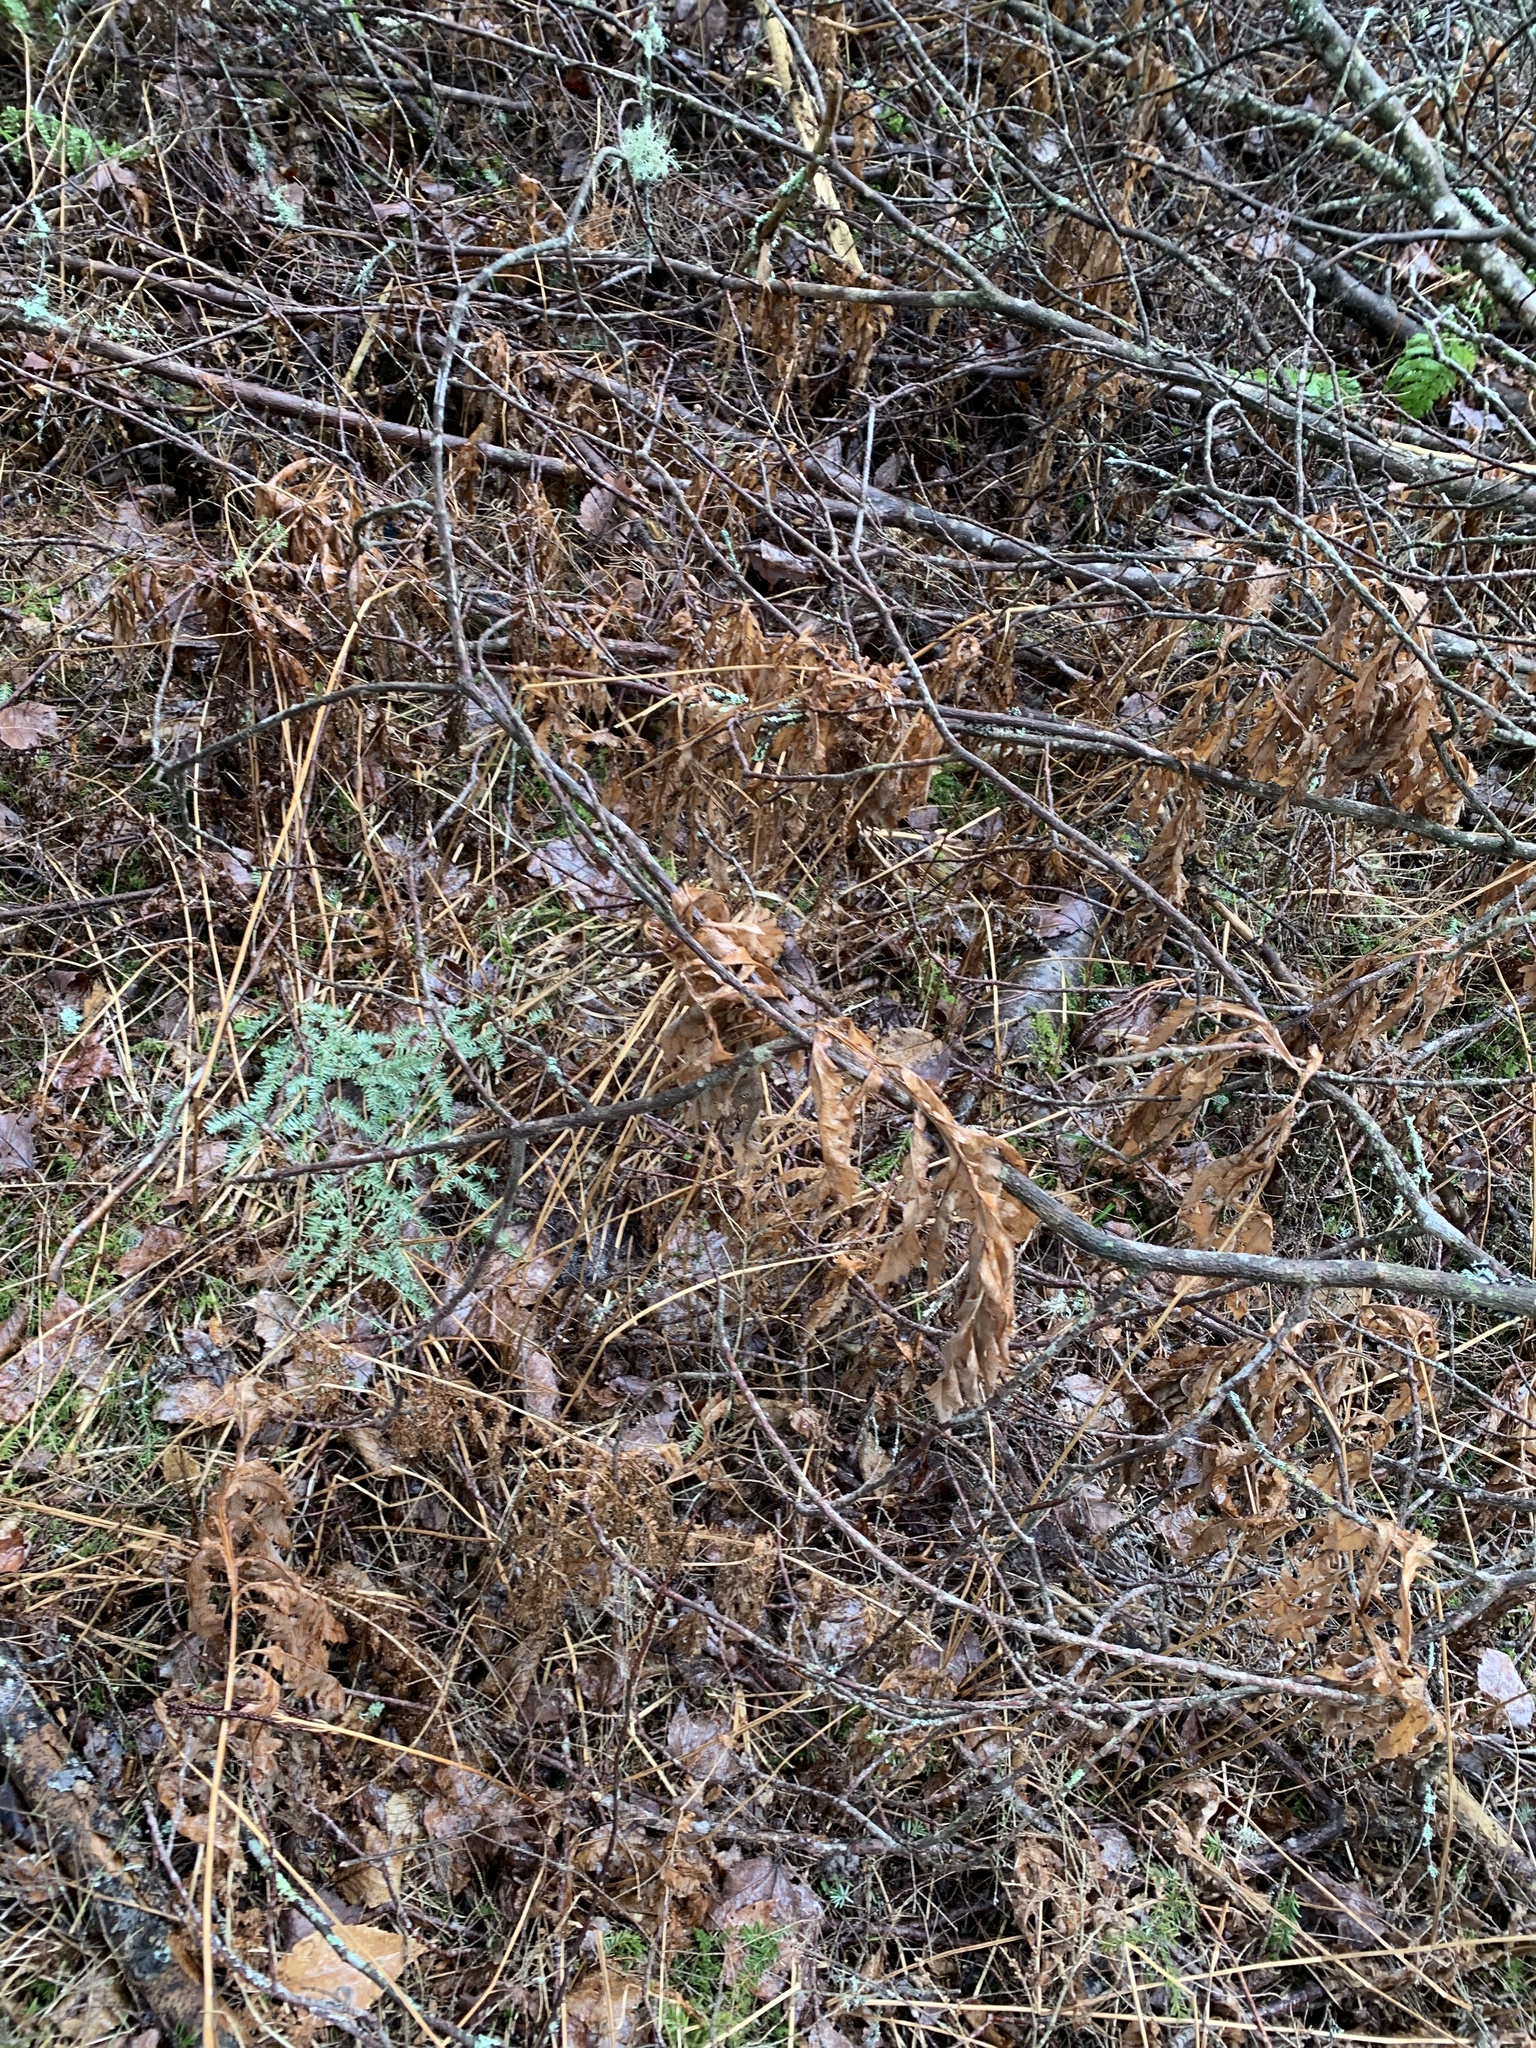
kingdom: Plantae
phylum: Tracheophyta
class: Polypodiopsida
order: Polypodiales
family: Onocleaceae
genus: Onoclea
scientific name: Onoclea sensibilis
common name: Sensitive fern
